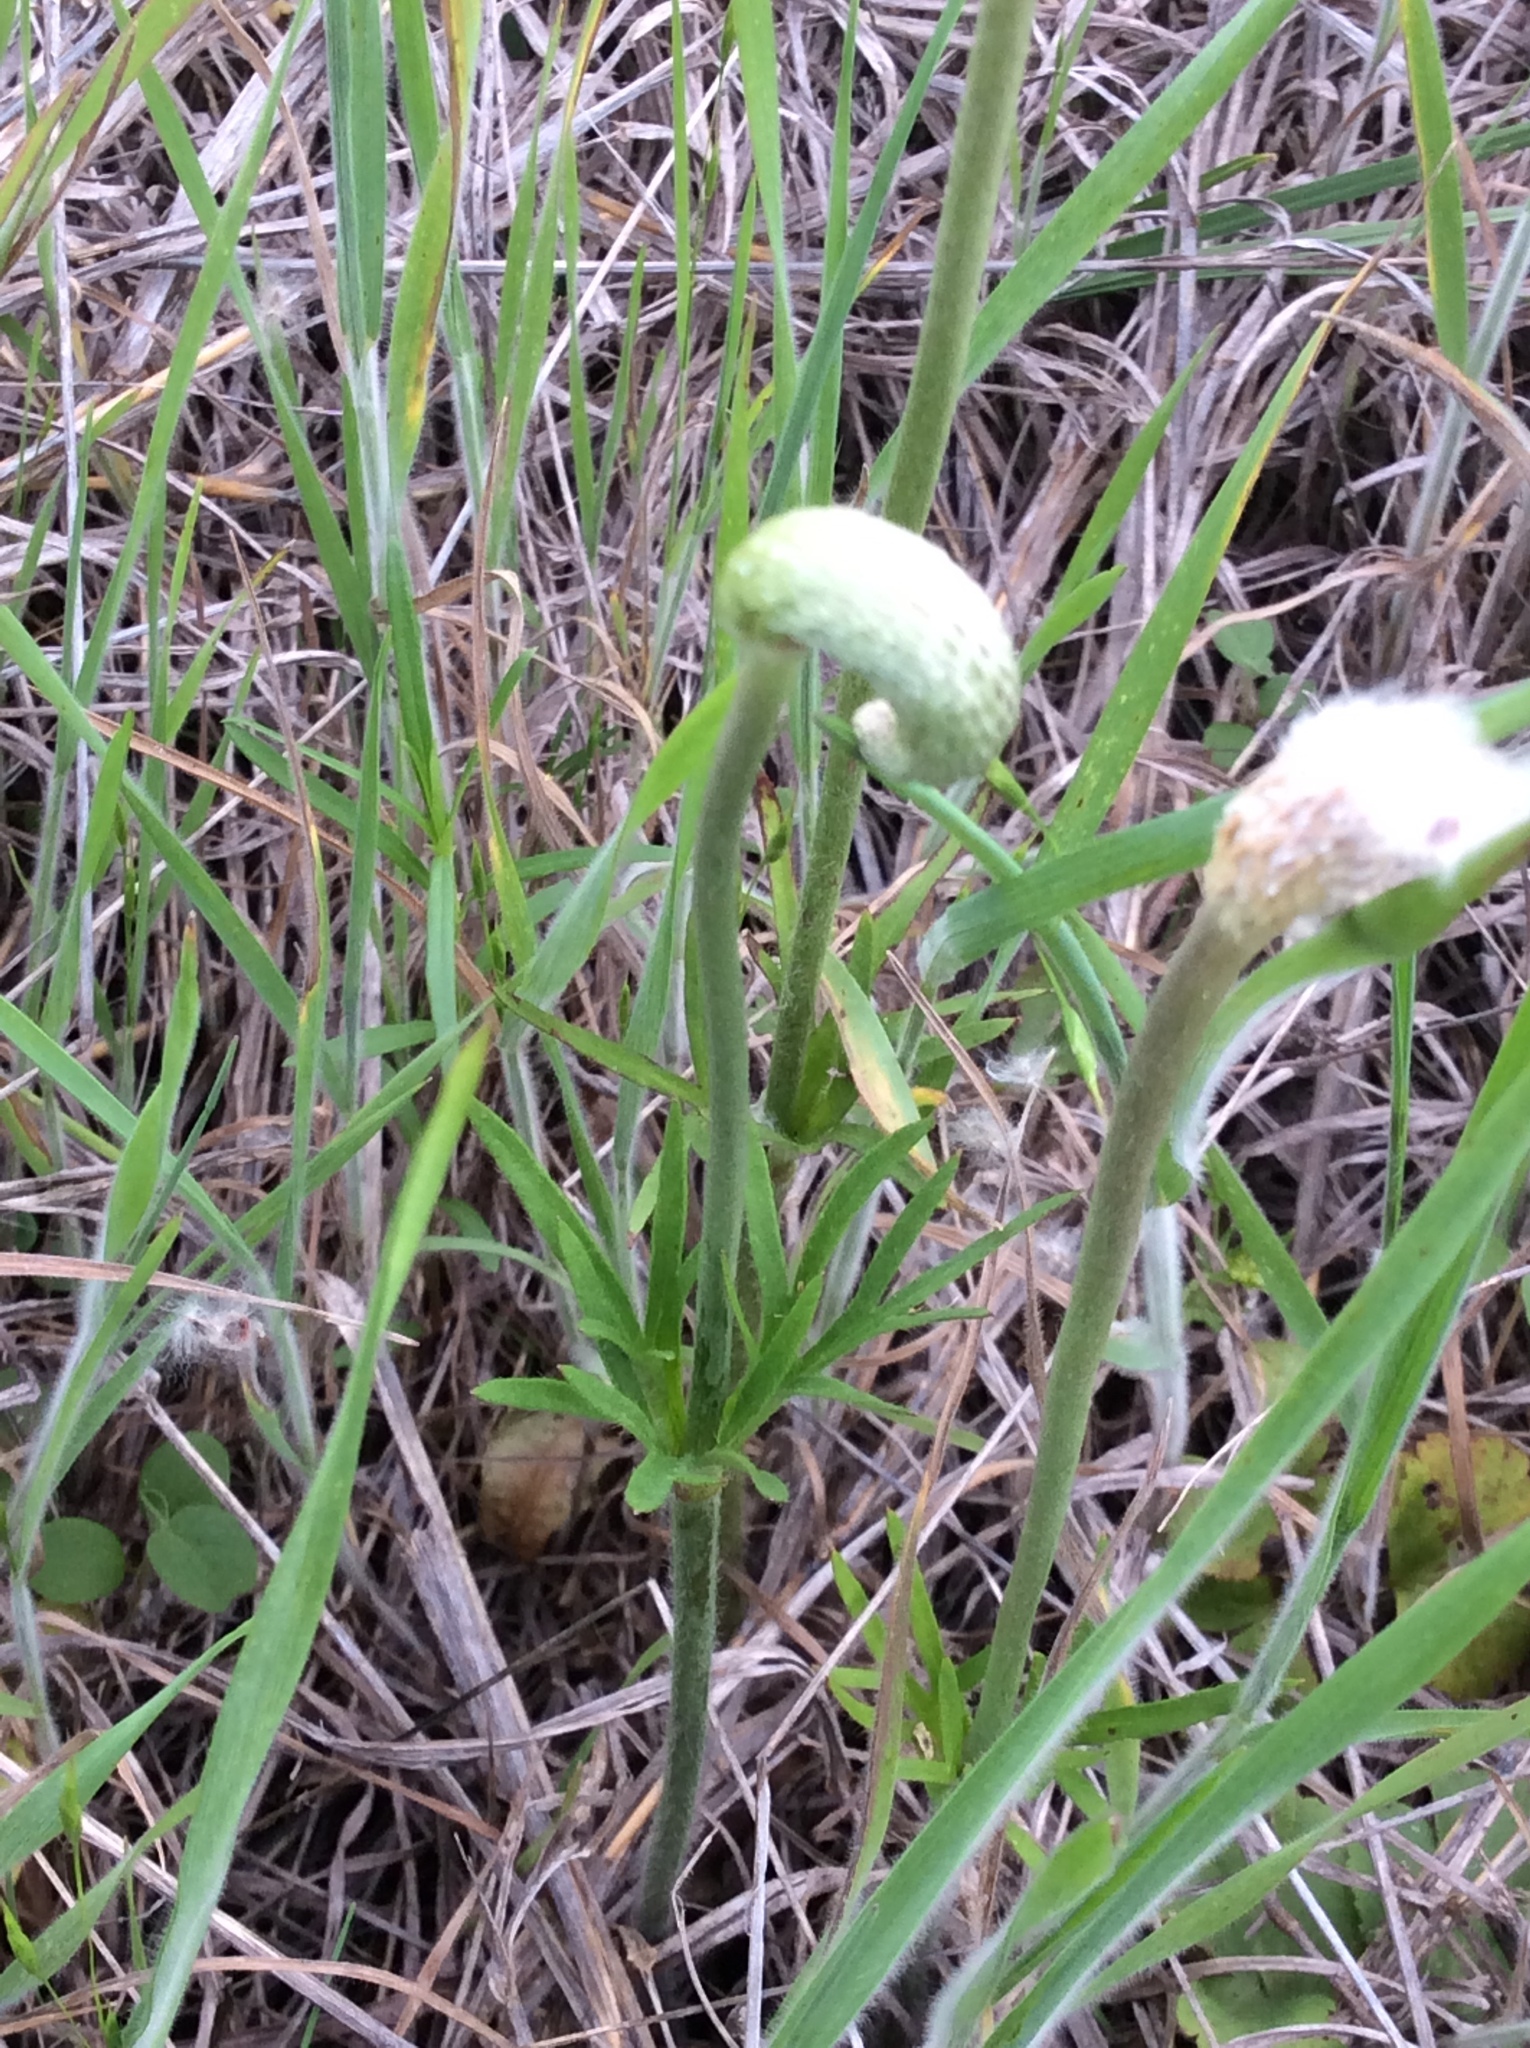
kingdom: Plantae
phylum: Tracheophyta
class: Magnoliopsida
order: Ranunculales
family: Ranunculaceae
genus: Anemone
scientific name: Anemone berlandieri
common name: Ten-petal anemone
